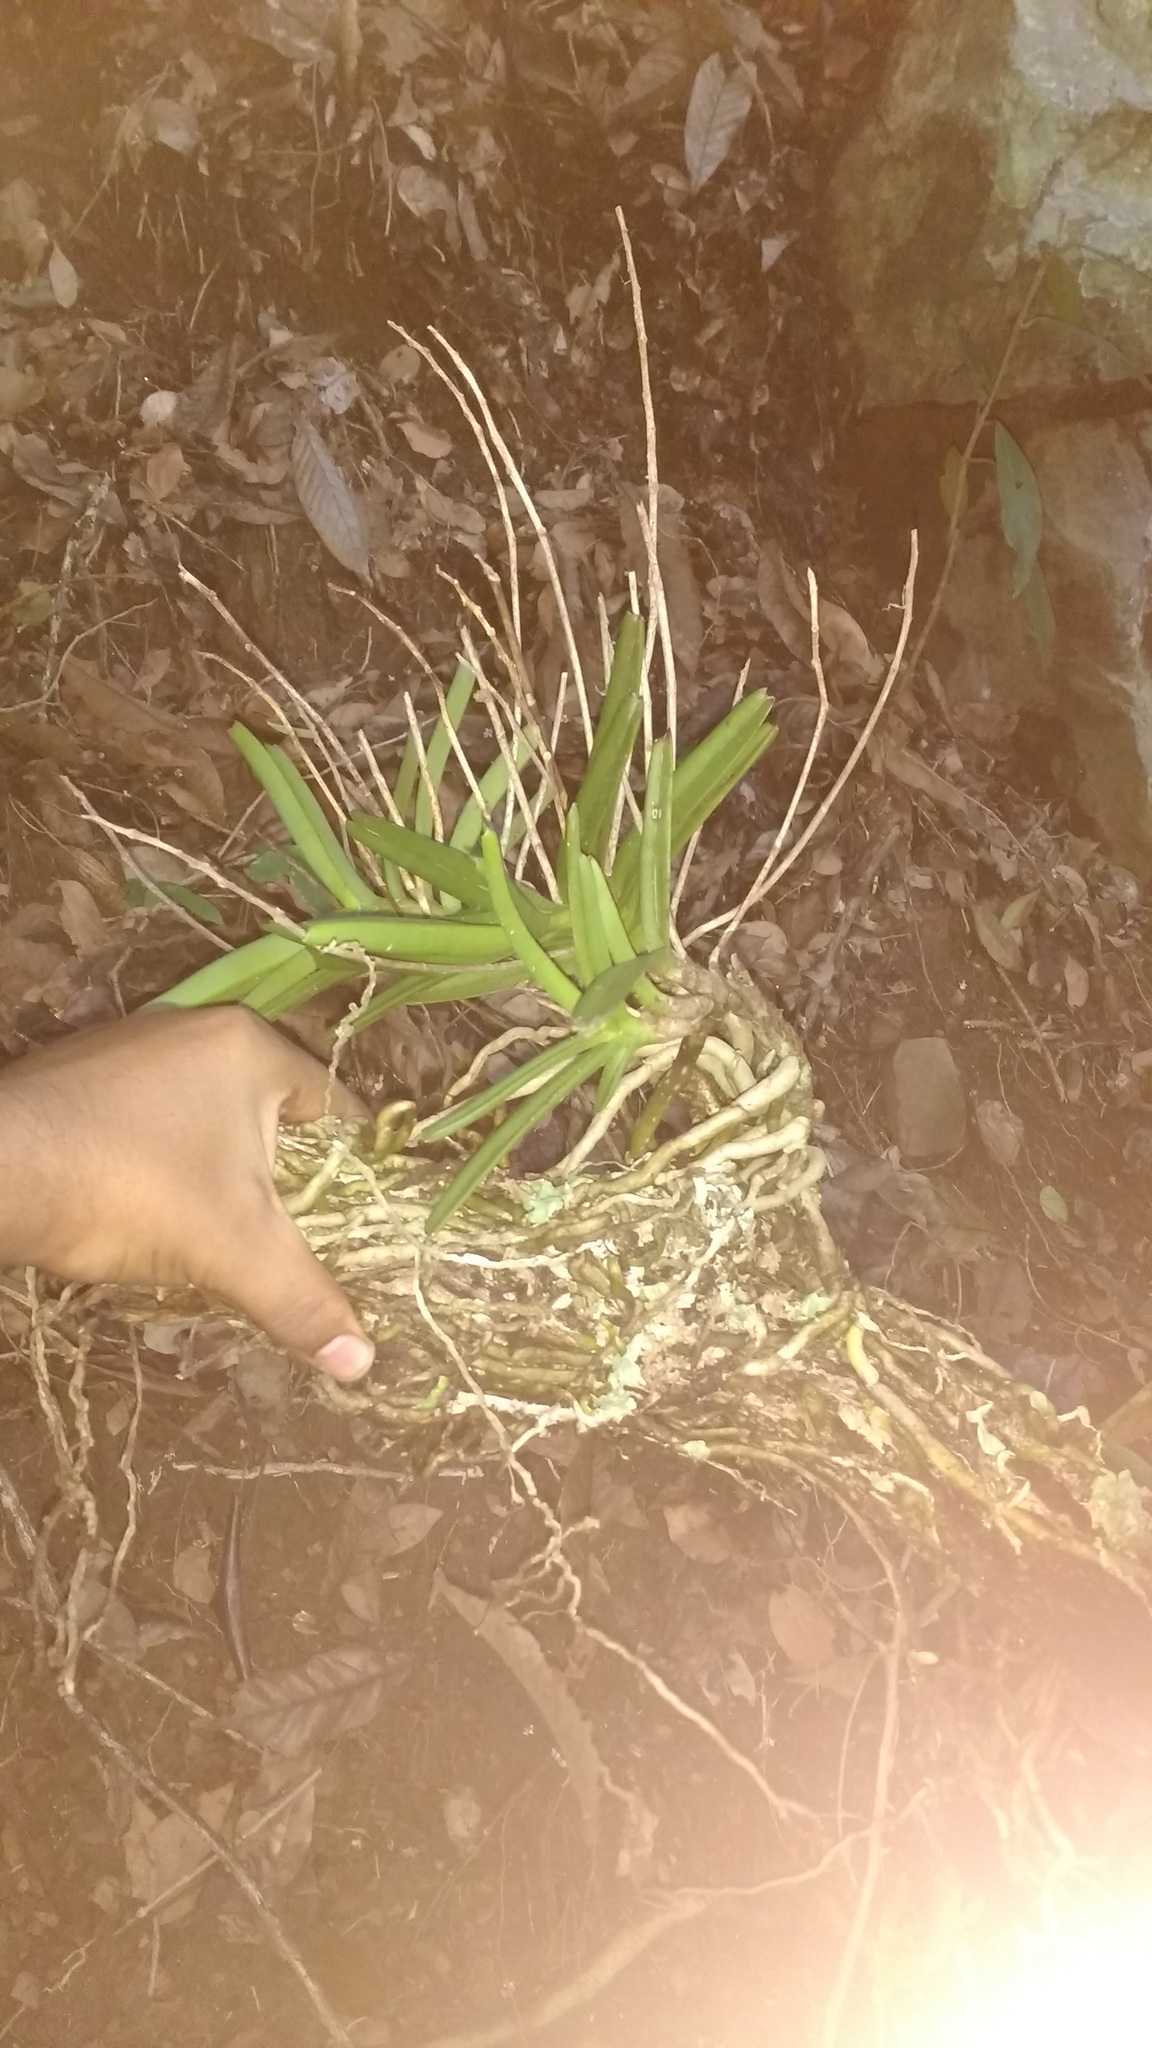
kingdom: Plantae
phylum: Tracheophyta
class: Liliopsida
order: Asparagales
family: Orchidaceae
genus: Taprobanea
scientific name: Taprobanea spathulata
